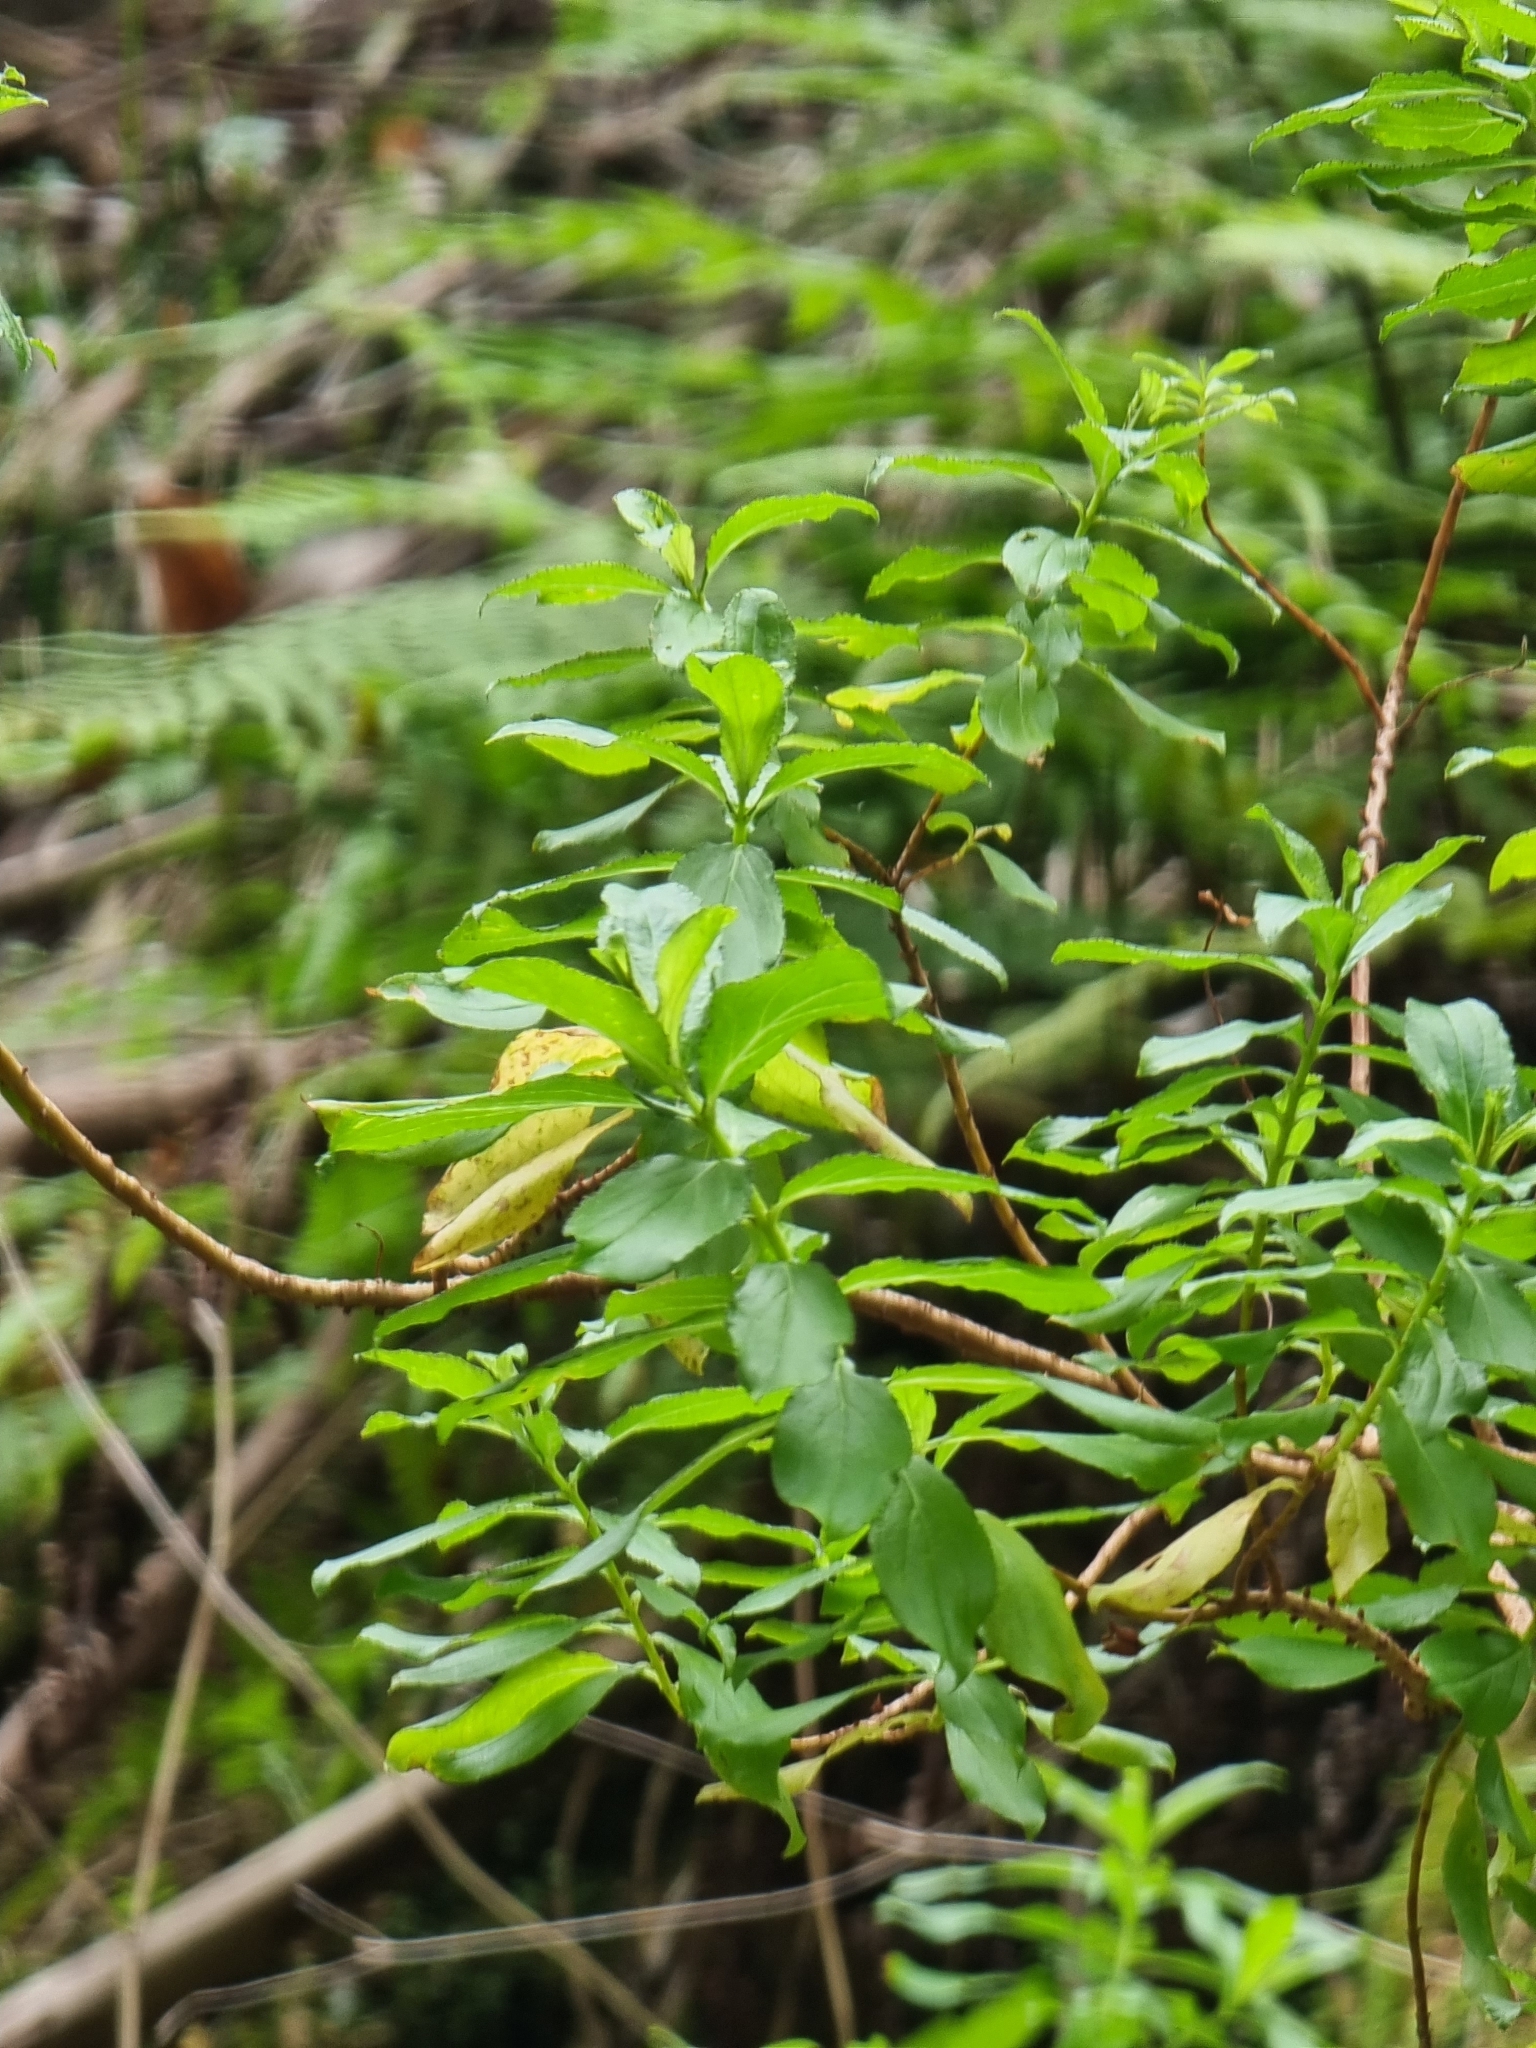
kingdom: Plantae
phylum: Tracheophyta
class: Magnoliopsida
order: Malpighiales
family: Hypericaceae
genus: Hypericum
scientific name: Hypericum glandulosum
